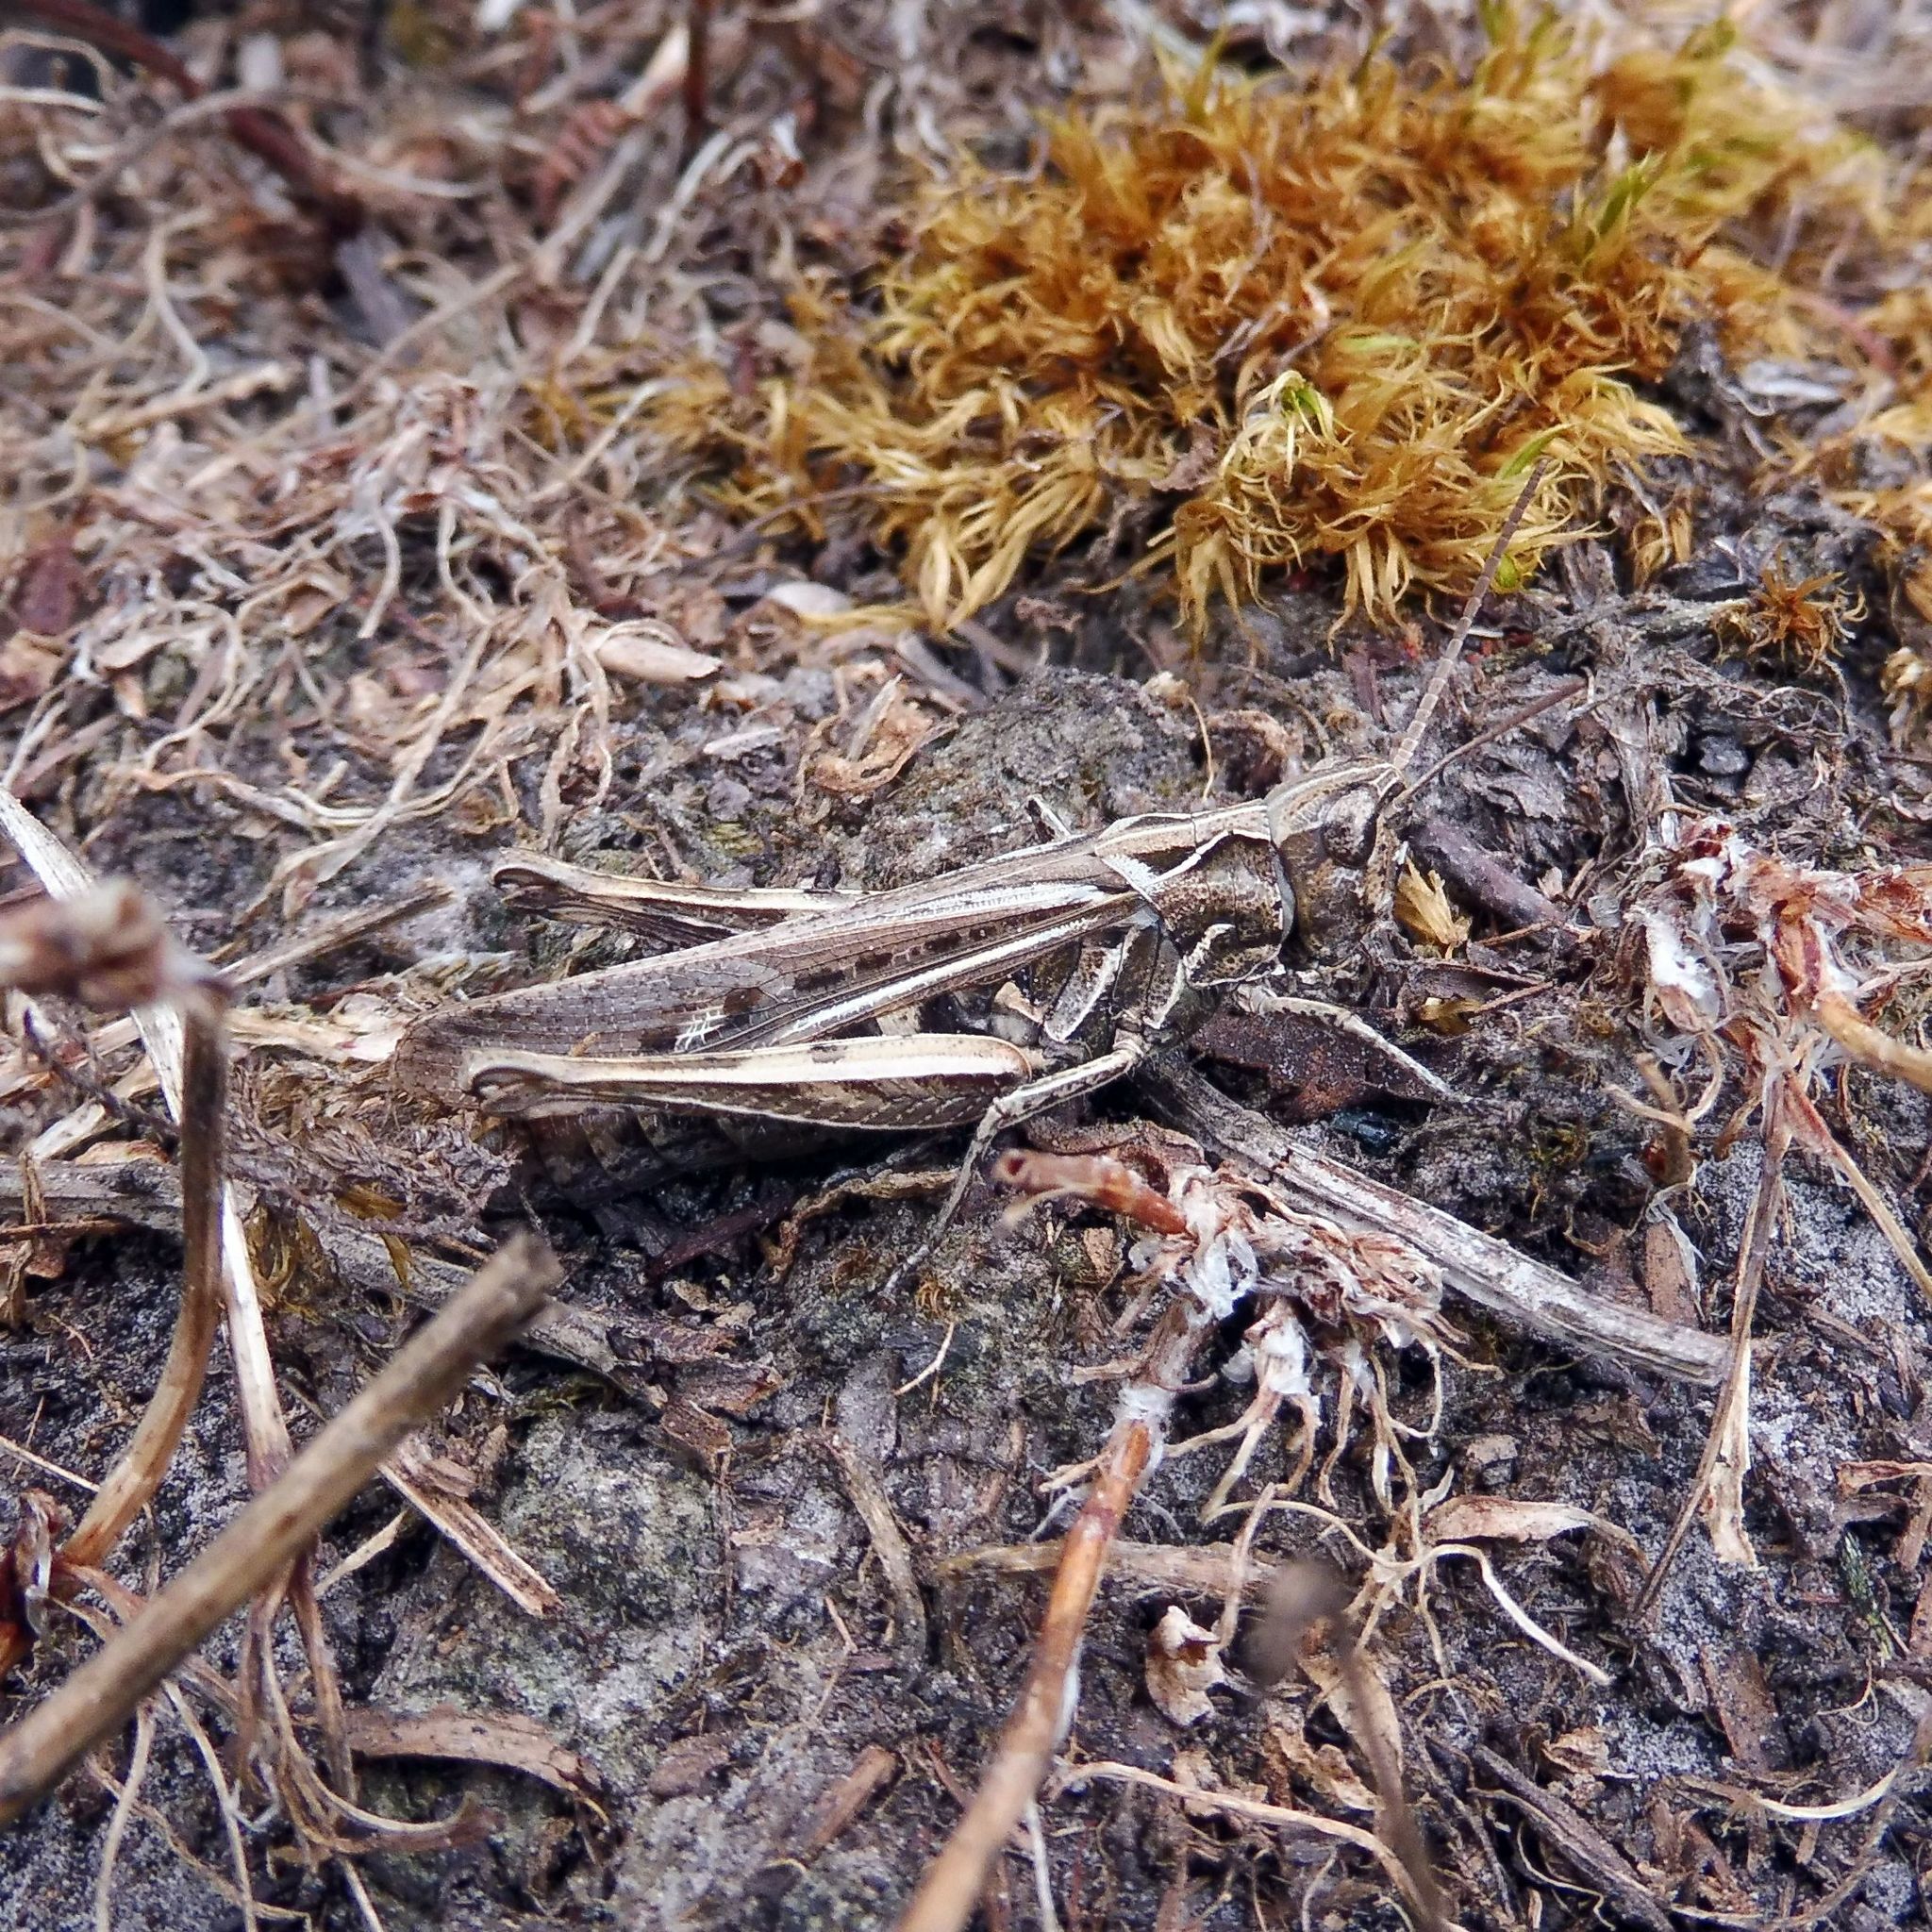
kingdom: Animalia
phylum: Arthropoda
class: Insecta
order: Orthoptera
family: Acrididae
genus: Chorthippus
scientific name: Chorthippus brunneus
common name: Field grasshopper
